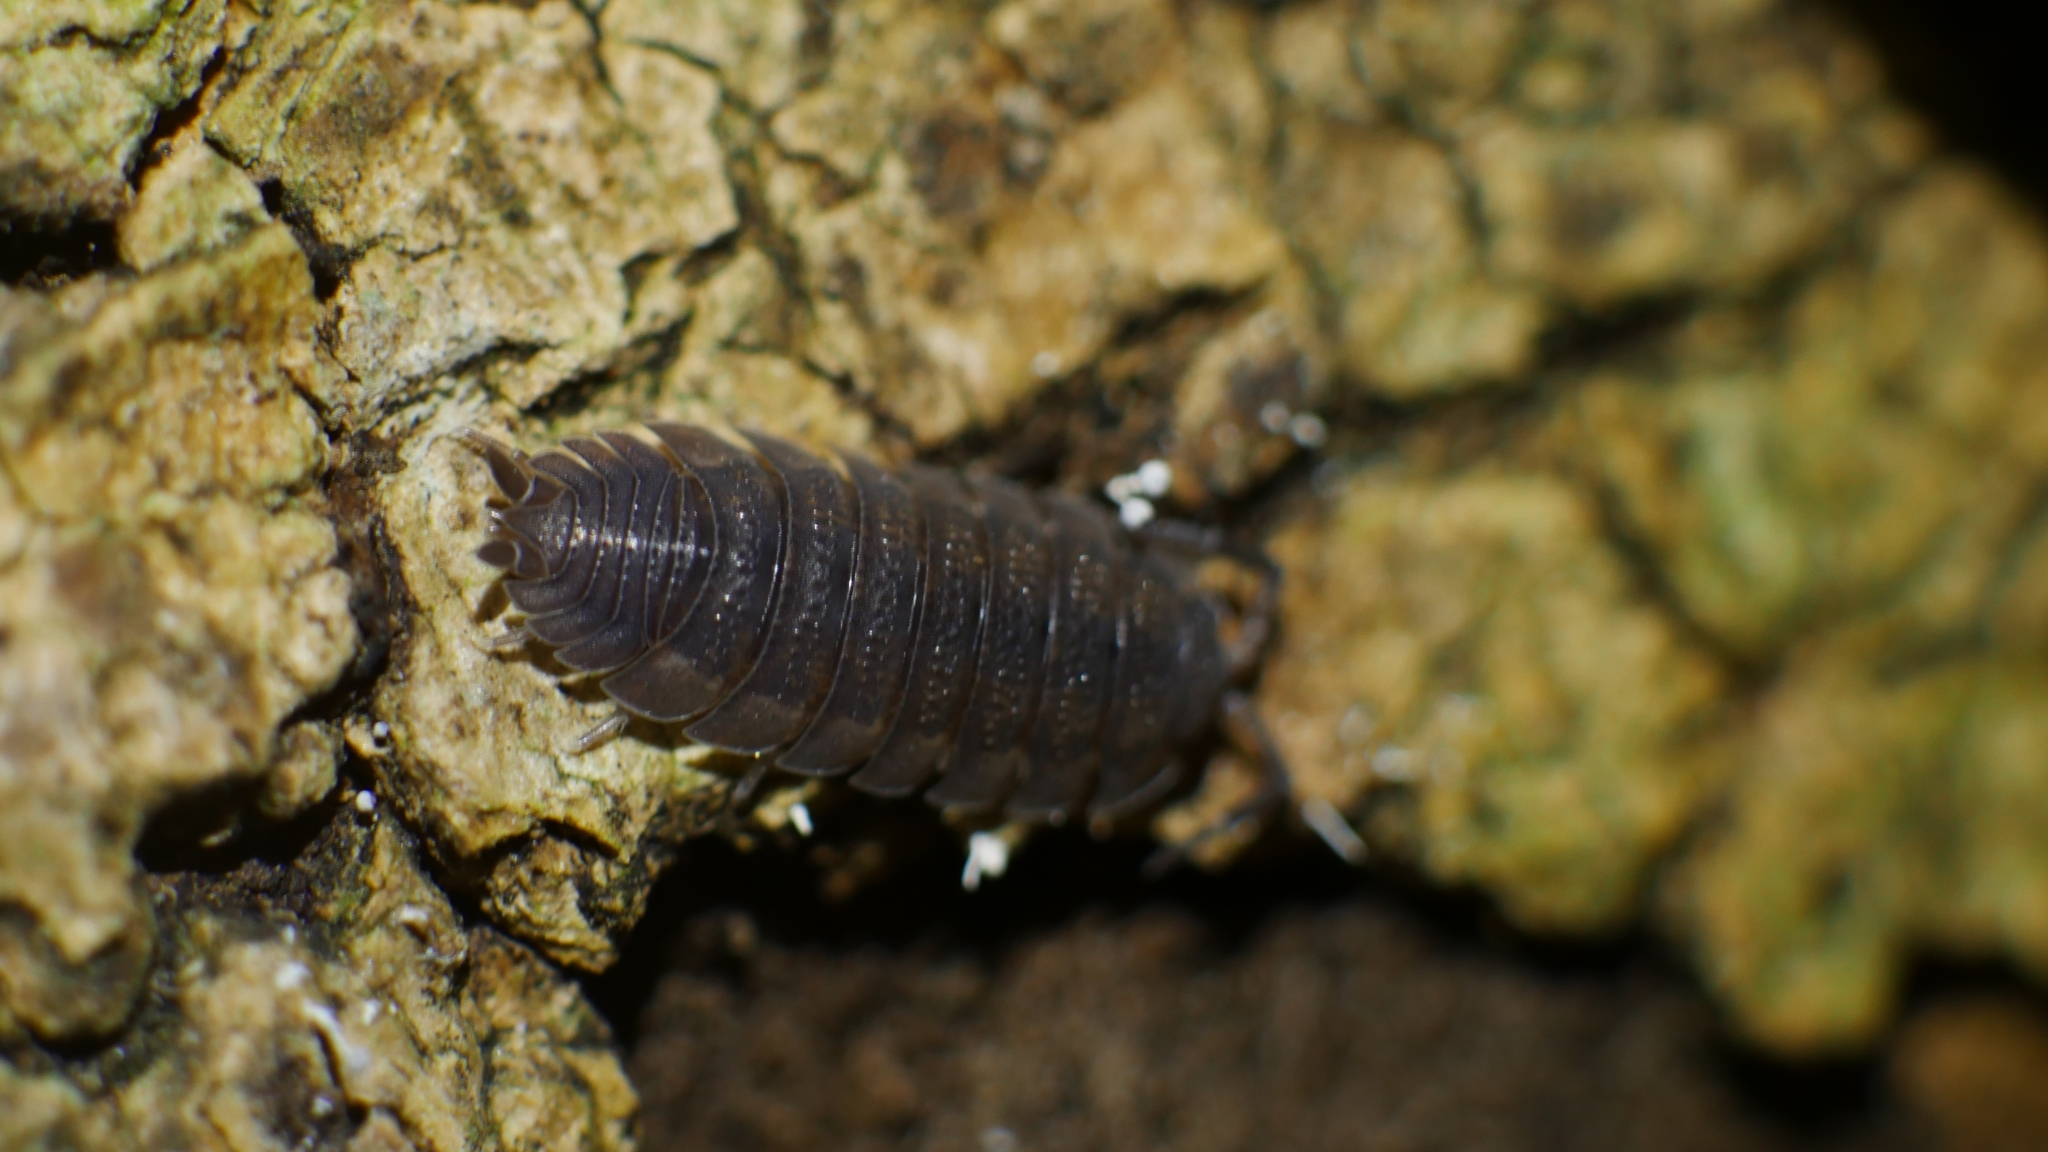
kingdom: Animalia
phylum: Arthropoda
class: Malacostraca
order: Isopoda
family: Porcellionidae
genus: Porcellio
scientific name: Porcellio scaber
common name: Common rough woodlouse
